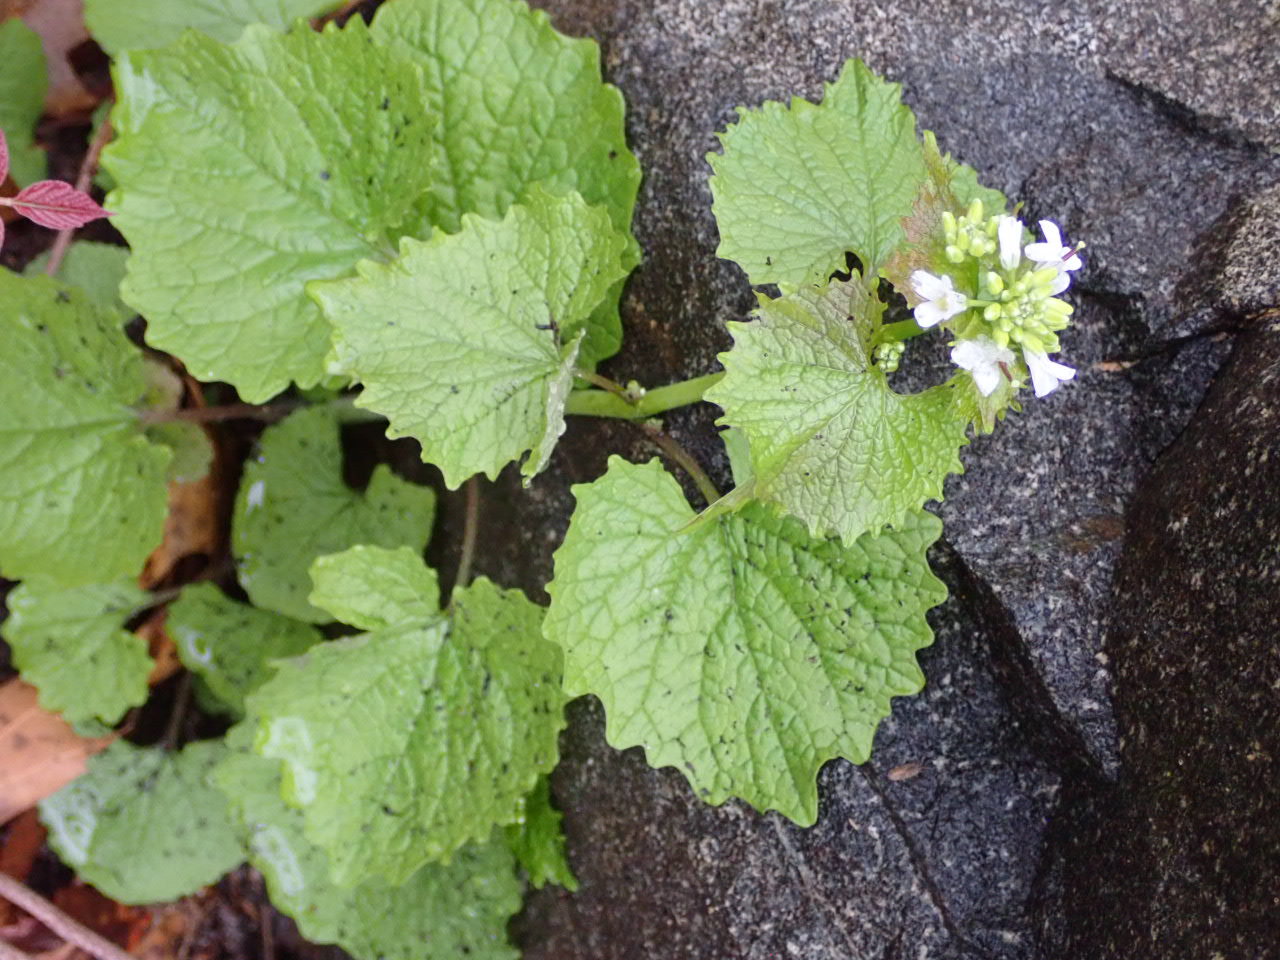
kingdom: Plantae
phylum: Tracheophyta
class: Magnoliopsida
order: Brassicales
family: Brassicaceae
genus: Alliaria
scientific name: Alliaria petiolata
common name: Garlic mustard
